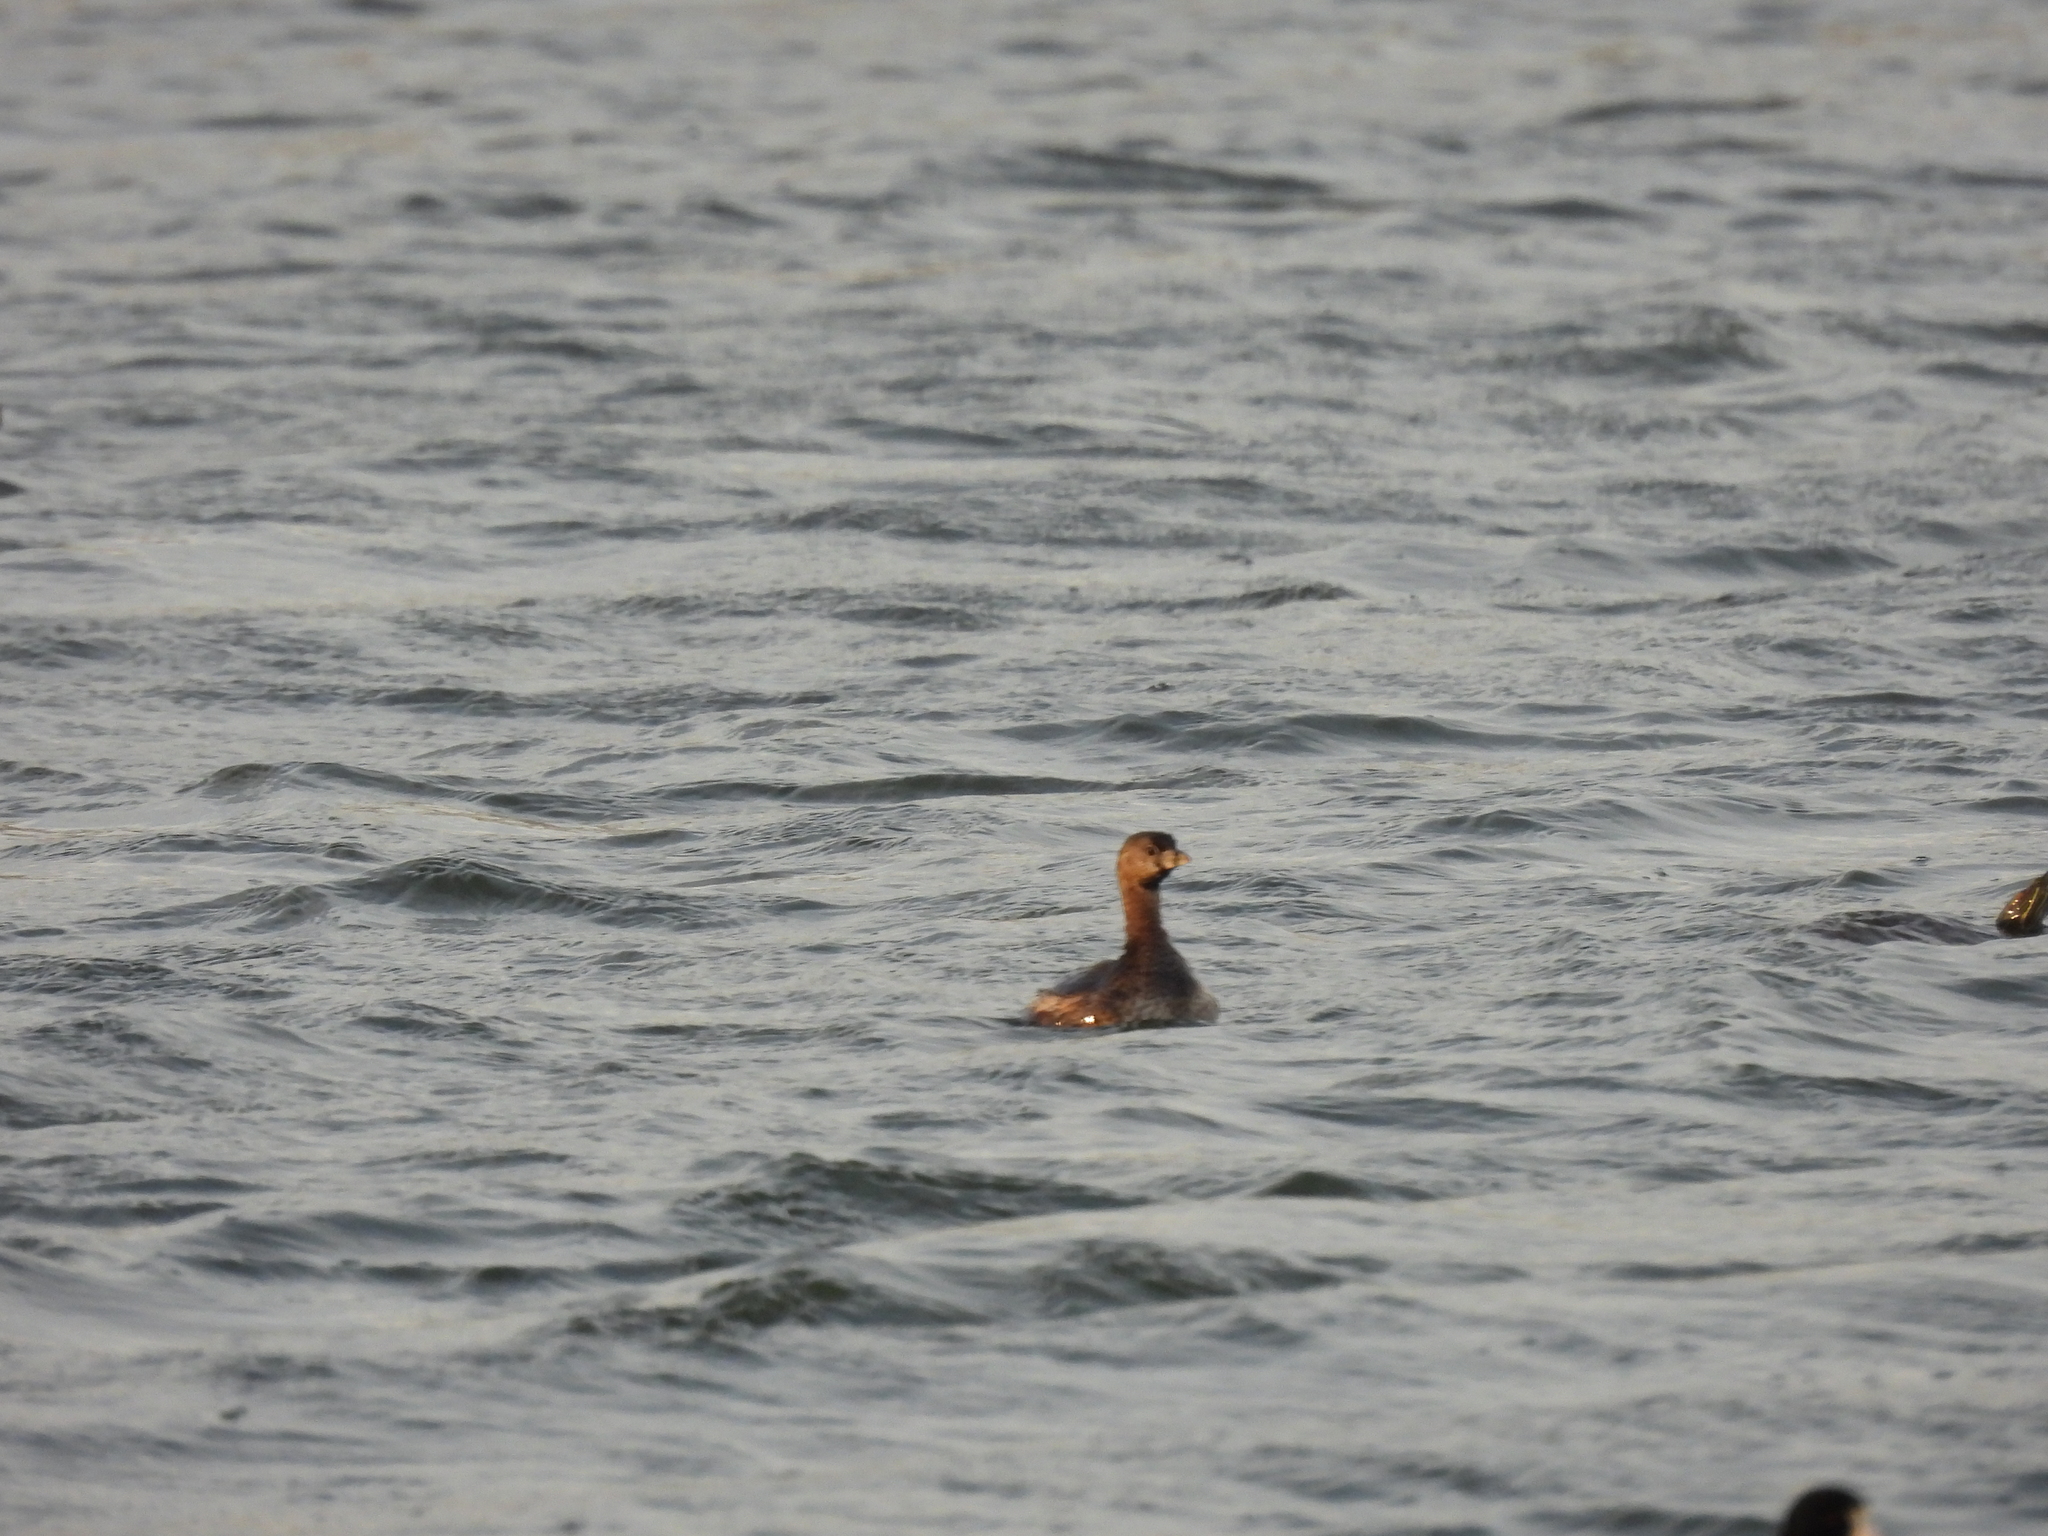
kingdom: Animalia
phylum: Chordata
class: Aves
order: Podicipediformes
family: Podicipedidae
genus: Podilymbus
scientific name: Podilymbus podiceps
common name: Pied-billed grebe
